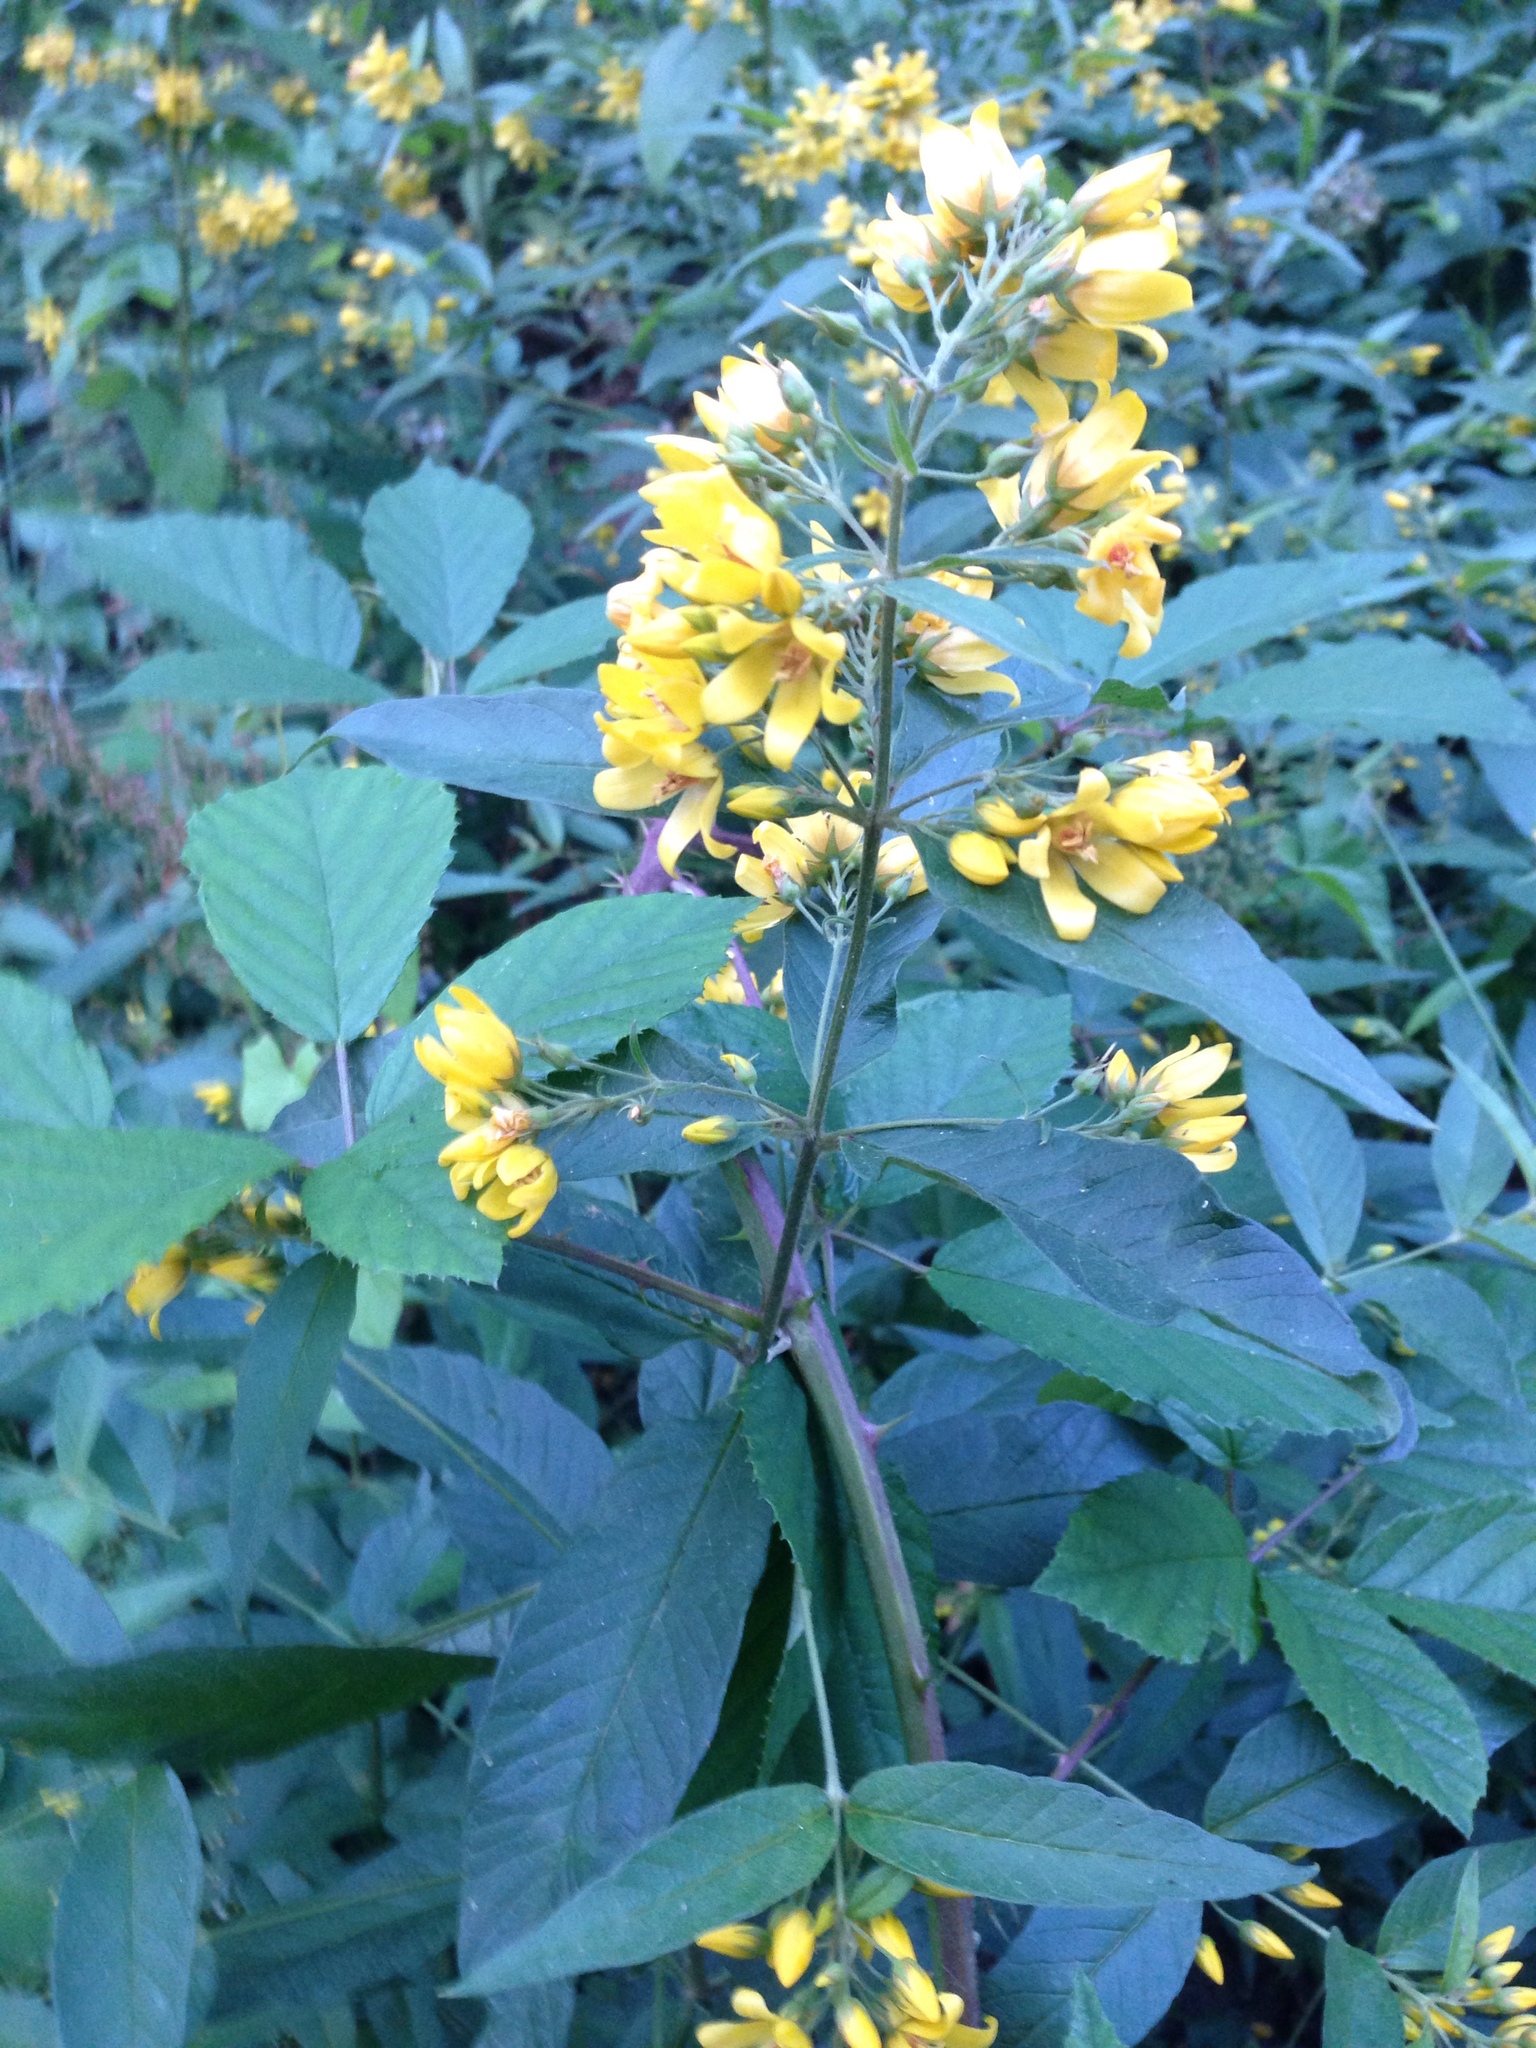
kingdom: Plantae
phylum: Tracheophyta
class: Magnoliopsida
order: Ericales
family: Primulaceae
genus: Lysimachia
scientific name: Lysimachia vulgaris
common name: Yellow loosestrife
